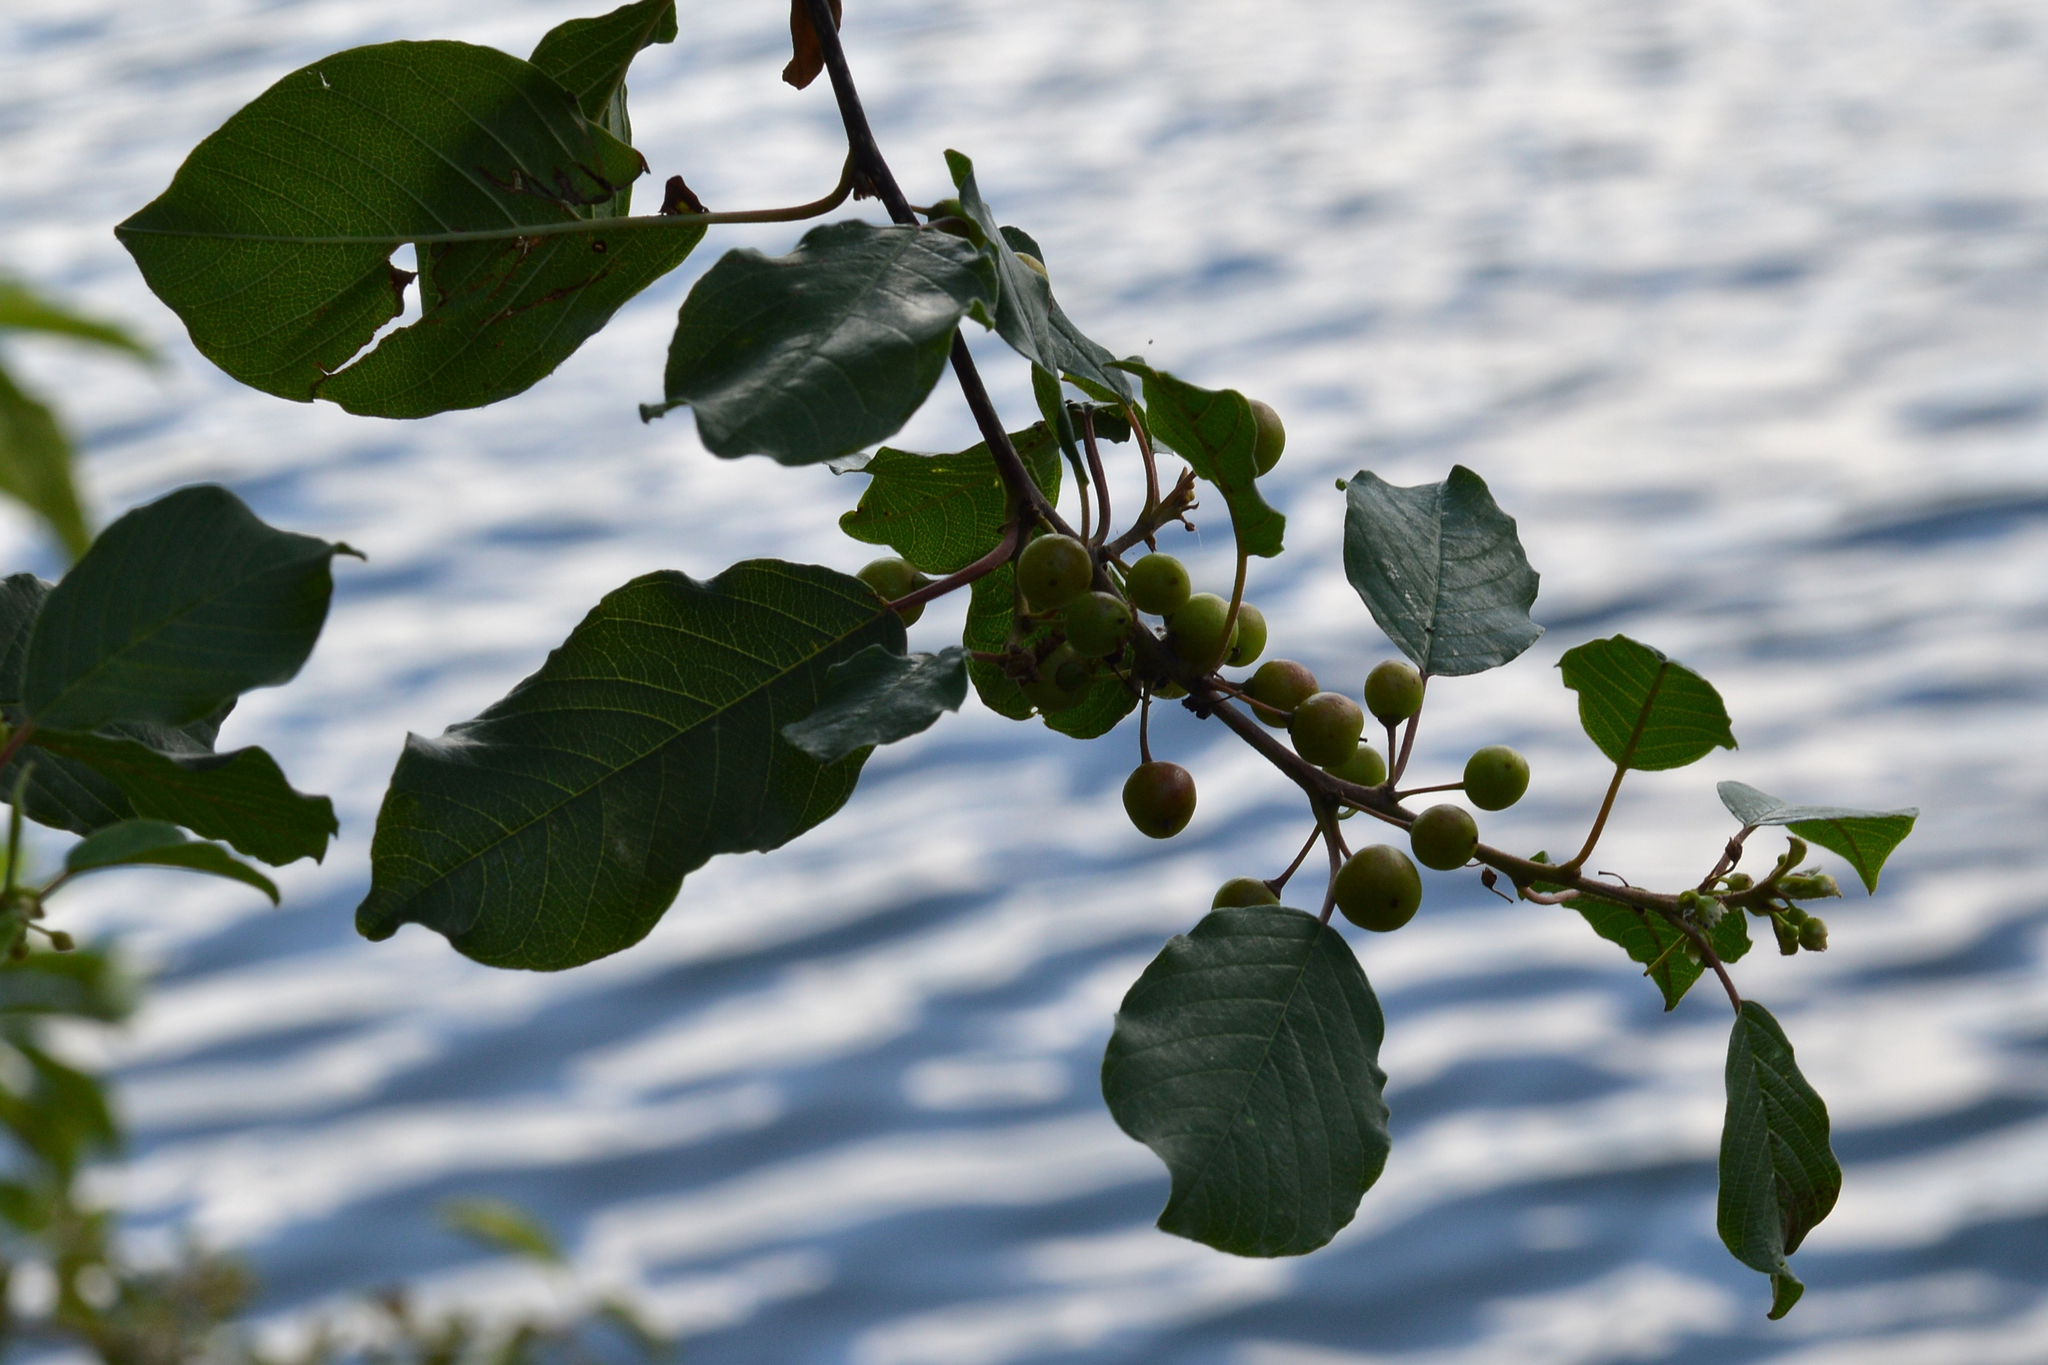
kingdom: Plantae
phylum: Tracheophyta
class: Magnoliopsida
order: Rosales
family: Rhamnaceae
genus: Frangula
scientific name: Frangula alnus
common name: Alder buckthorn
